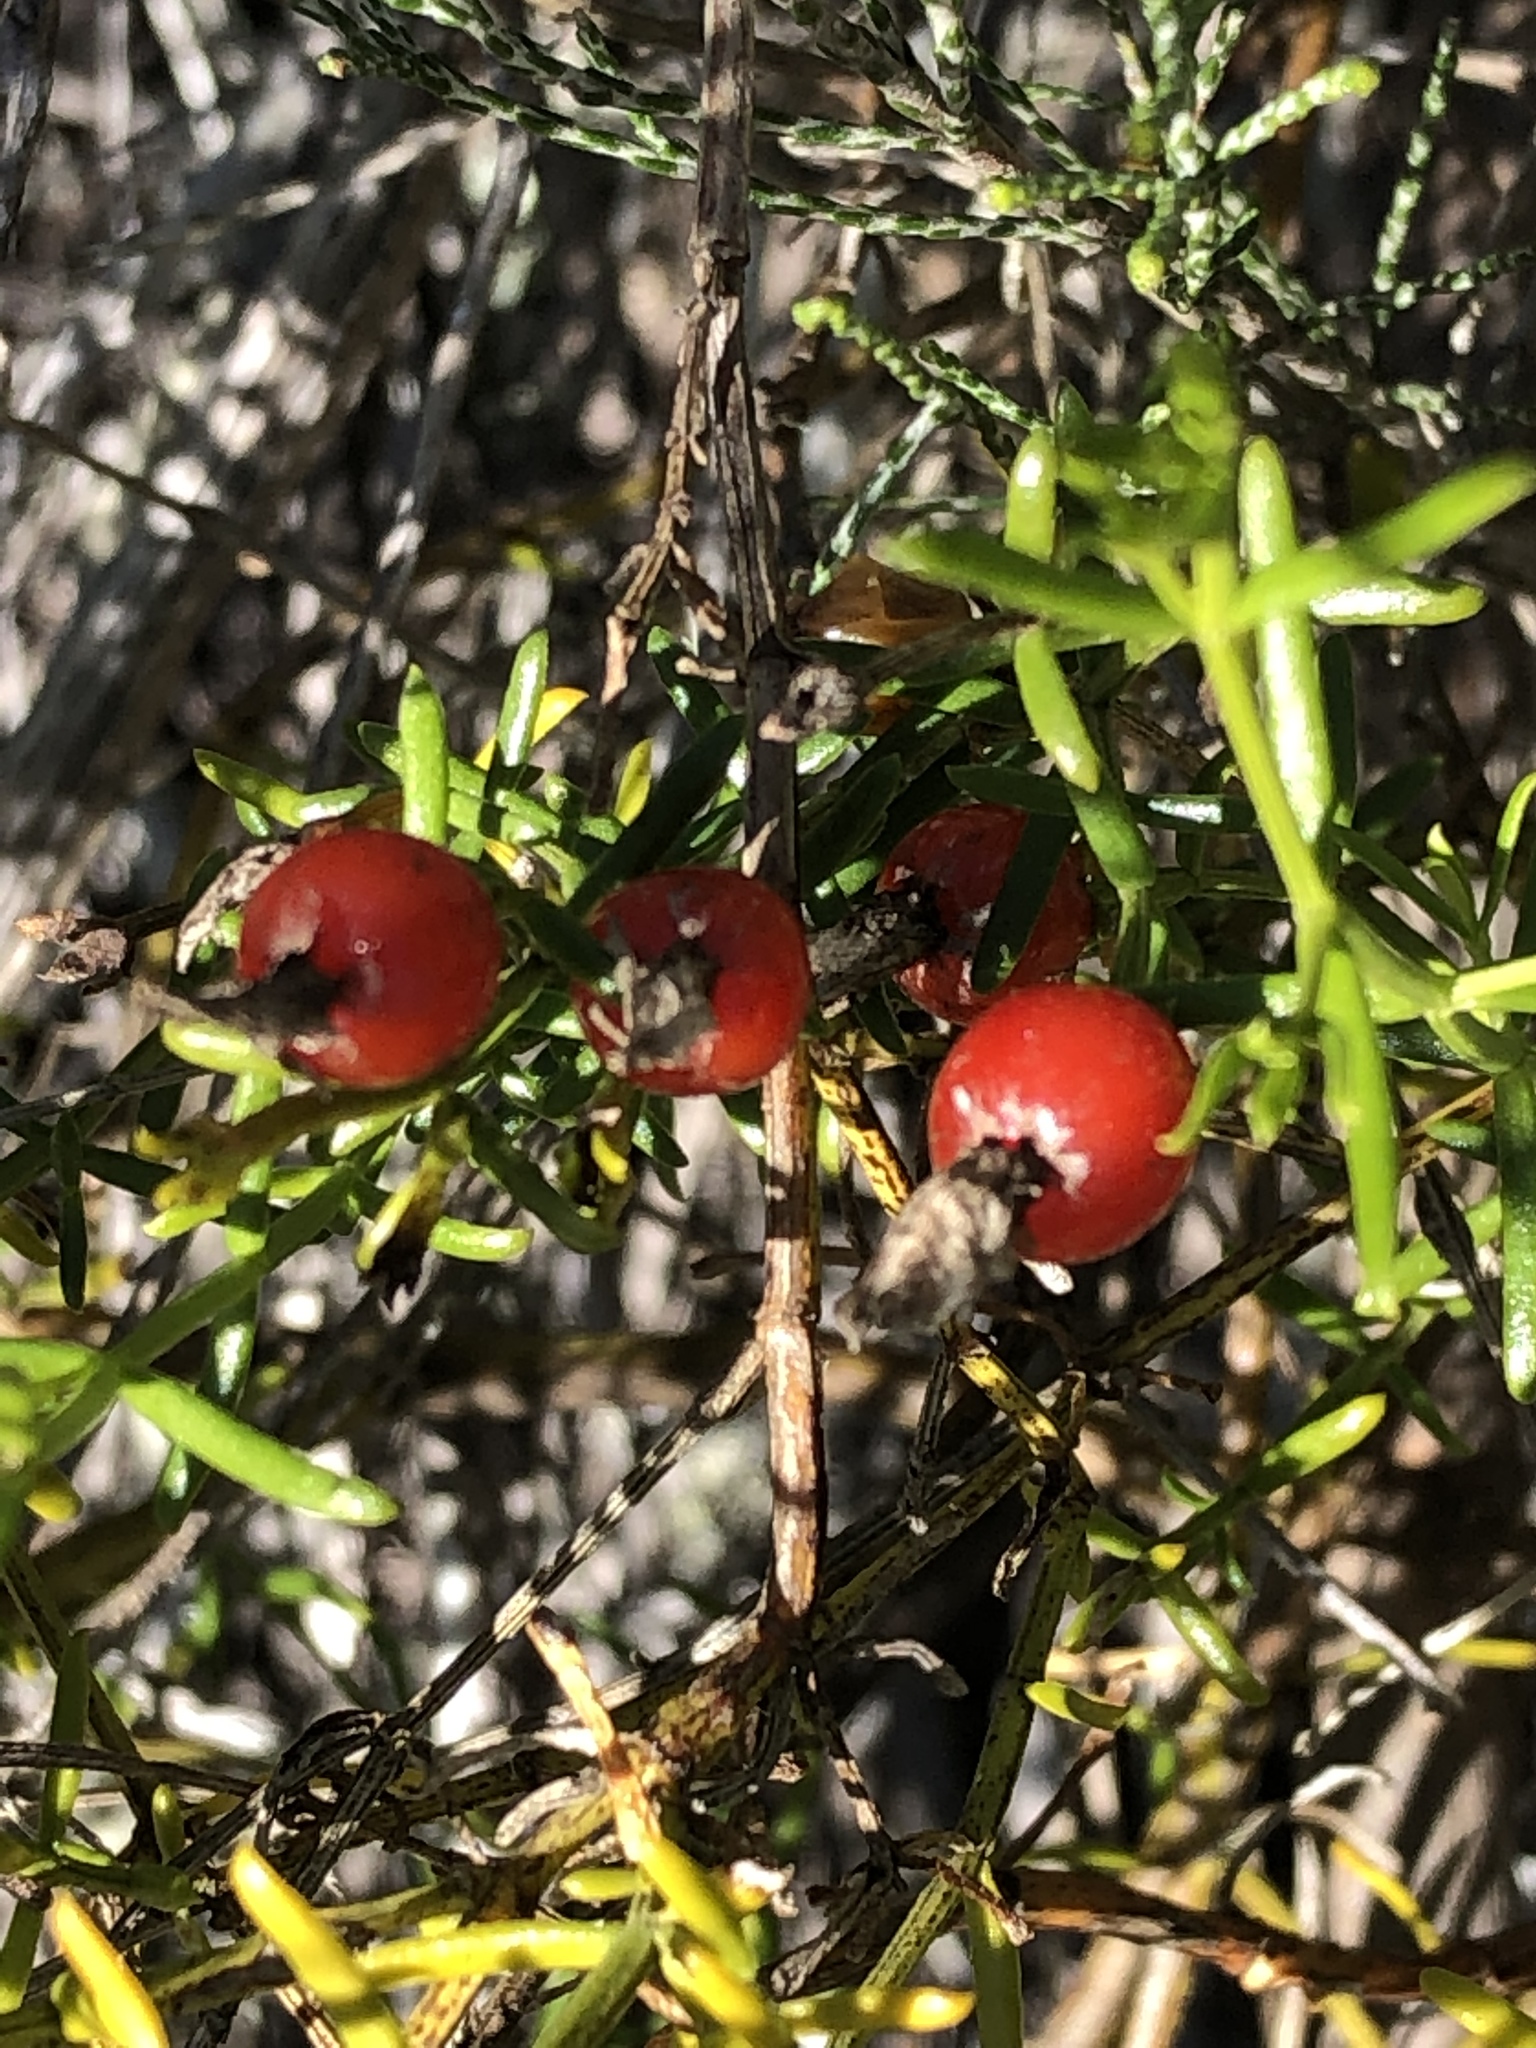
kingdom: Plantae
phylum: Tracheophyta
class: Magnoliopsida
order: Gentianales
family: Gentianaceae
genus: Chironia
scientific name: Chironia baccifera
